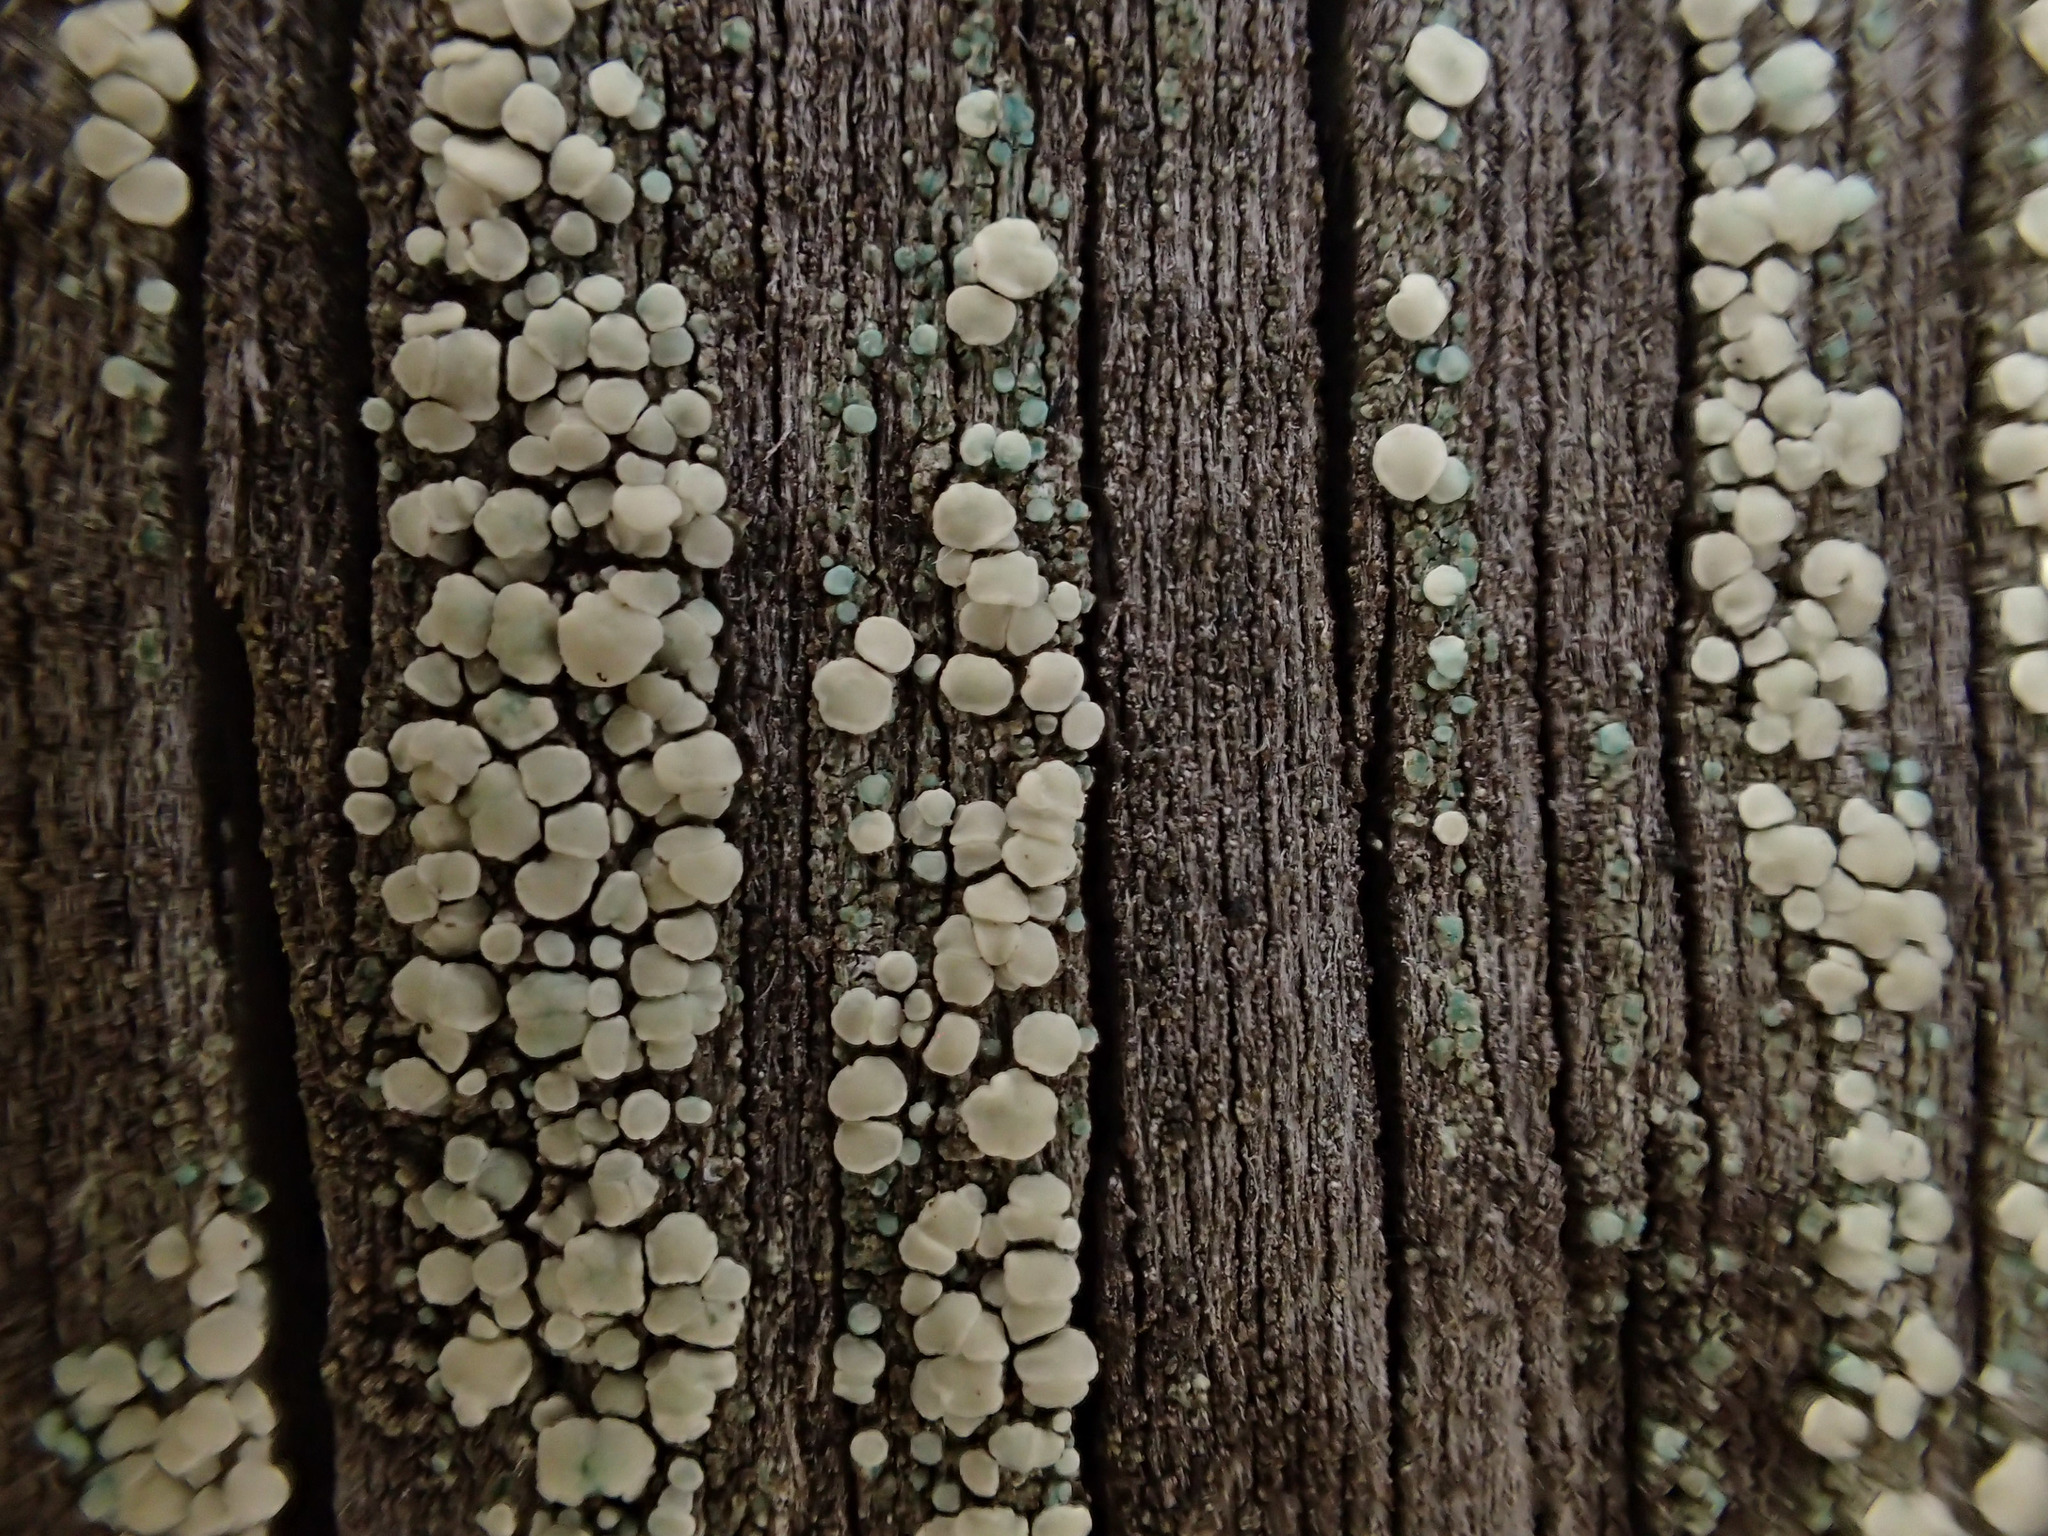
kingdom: Fungi
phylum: Ascomycota
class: Lecanoromycetes
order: Lecanorales
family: Lecanoraceae
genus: Lecanora
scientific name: Lecanora polytropa
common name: Granite-speck rim lichen
